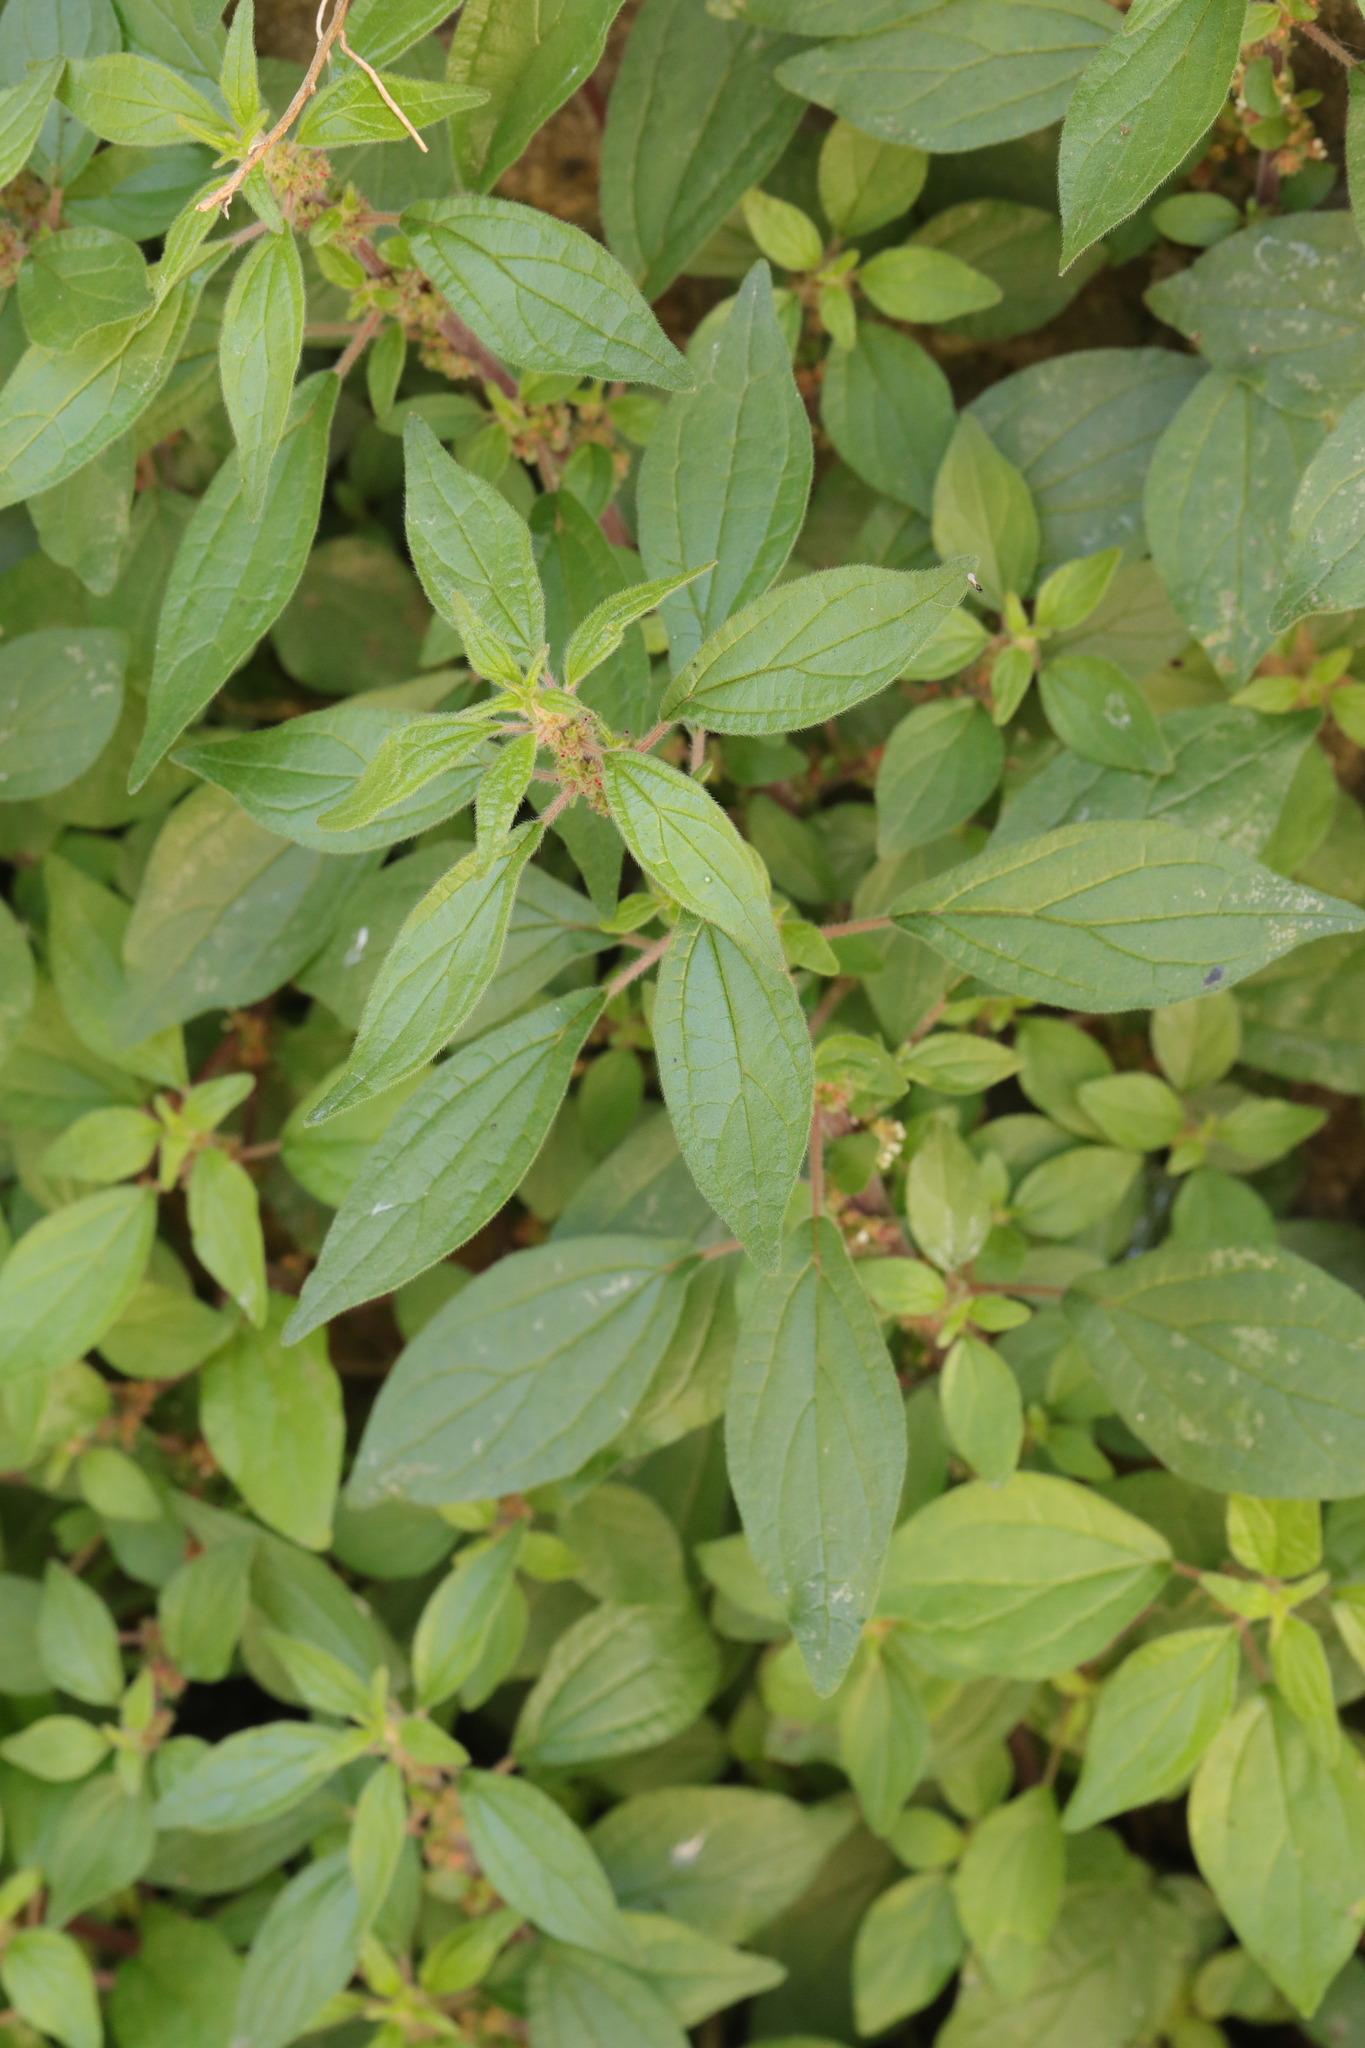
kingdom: Plantae
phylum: Tracheophyta
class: Magnoliopsida
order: Rosales
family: Urticaceae
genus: Parietaria
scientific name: Parietaria judaica
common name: Pellitory-of-the-wall
